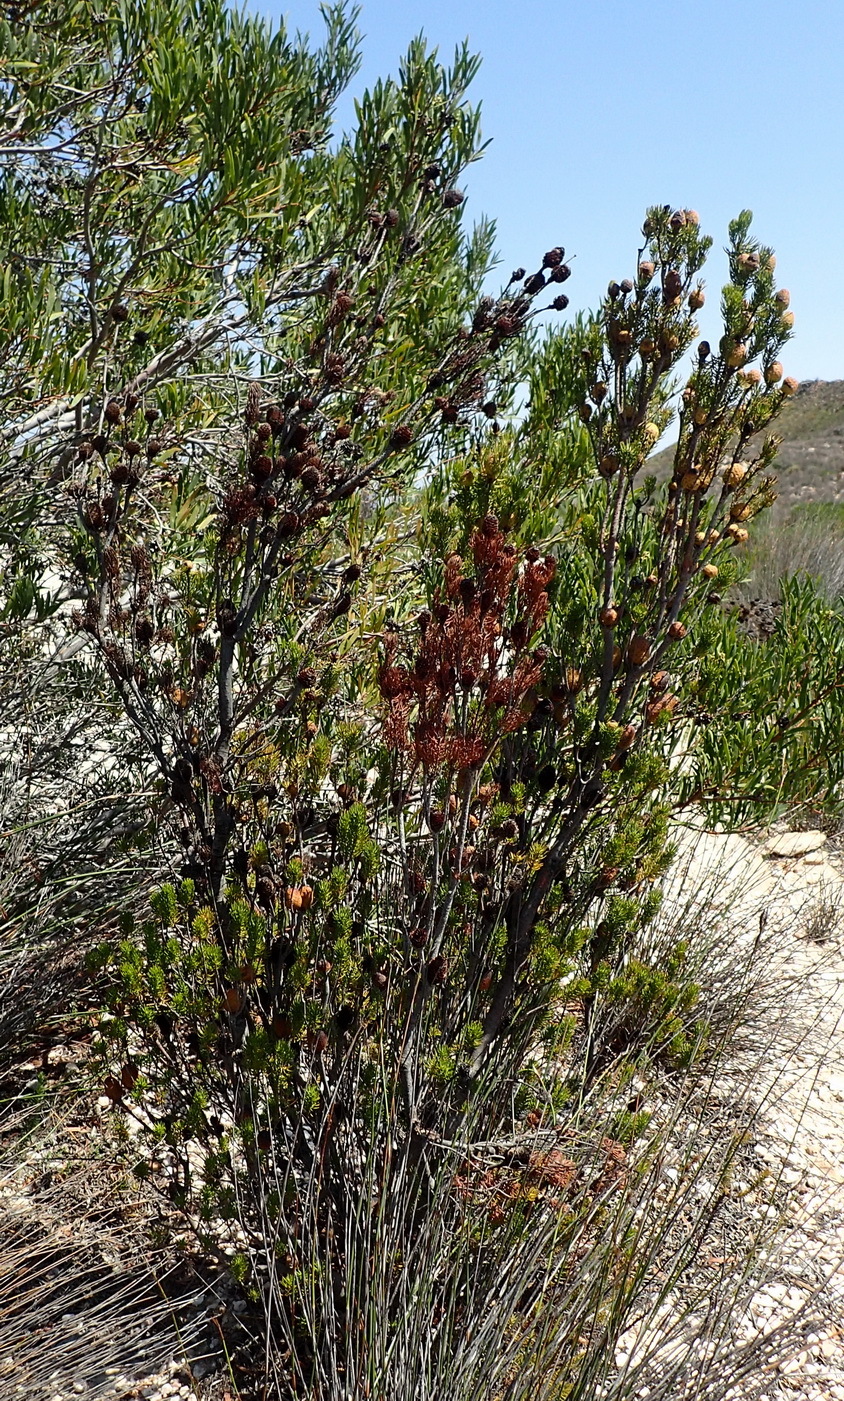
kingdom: Plantae
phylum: Tracheophyta
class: Magnoliopsida
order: Proteales
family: Proteaceae
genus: Leucadendron
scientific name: Leucadendron teretifolium
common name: Needle-leaf conebush
